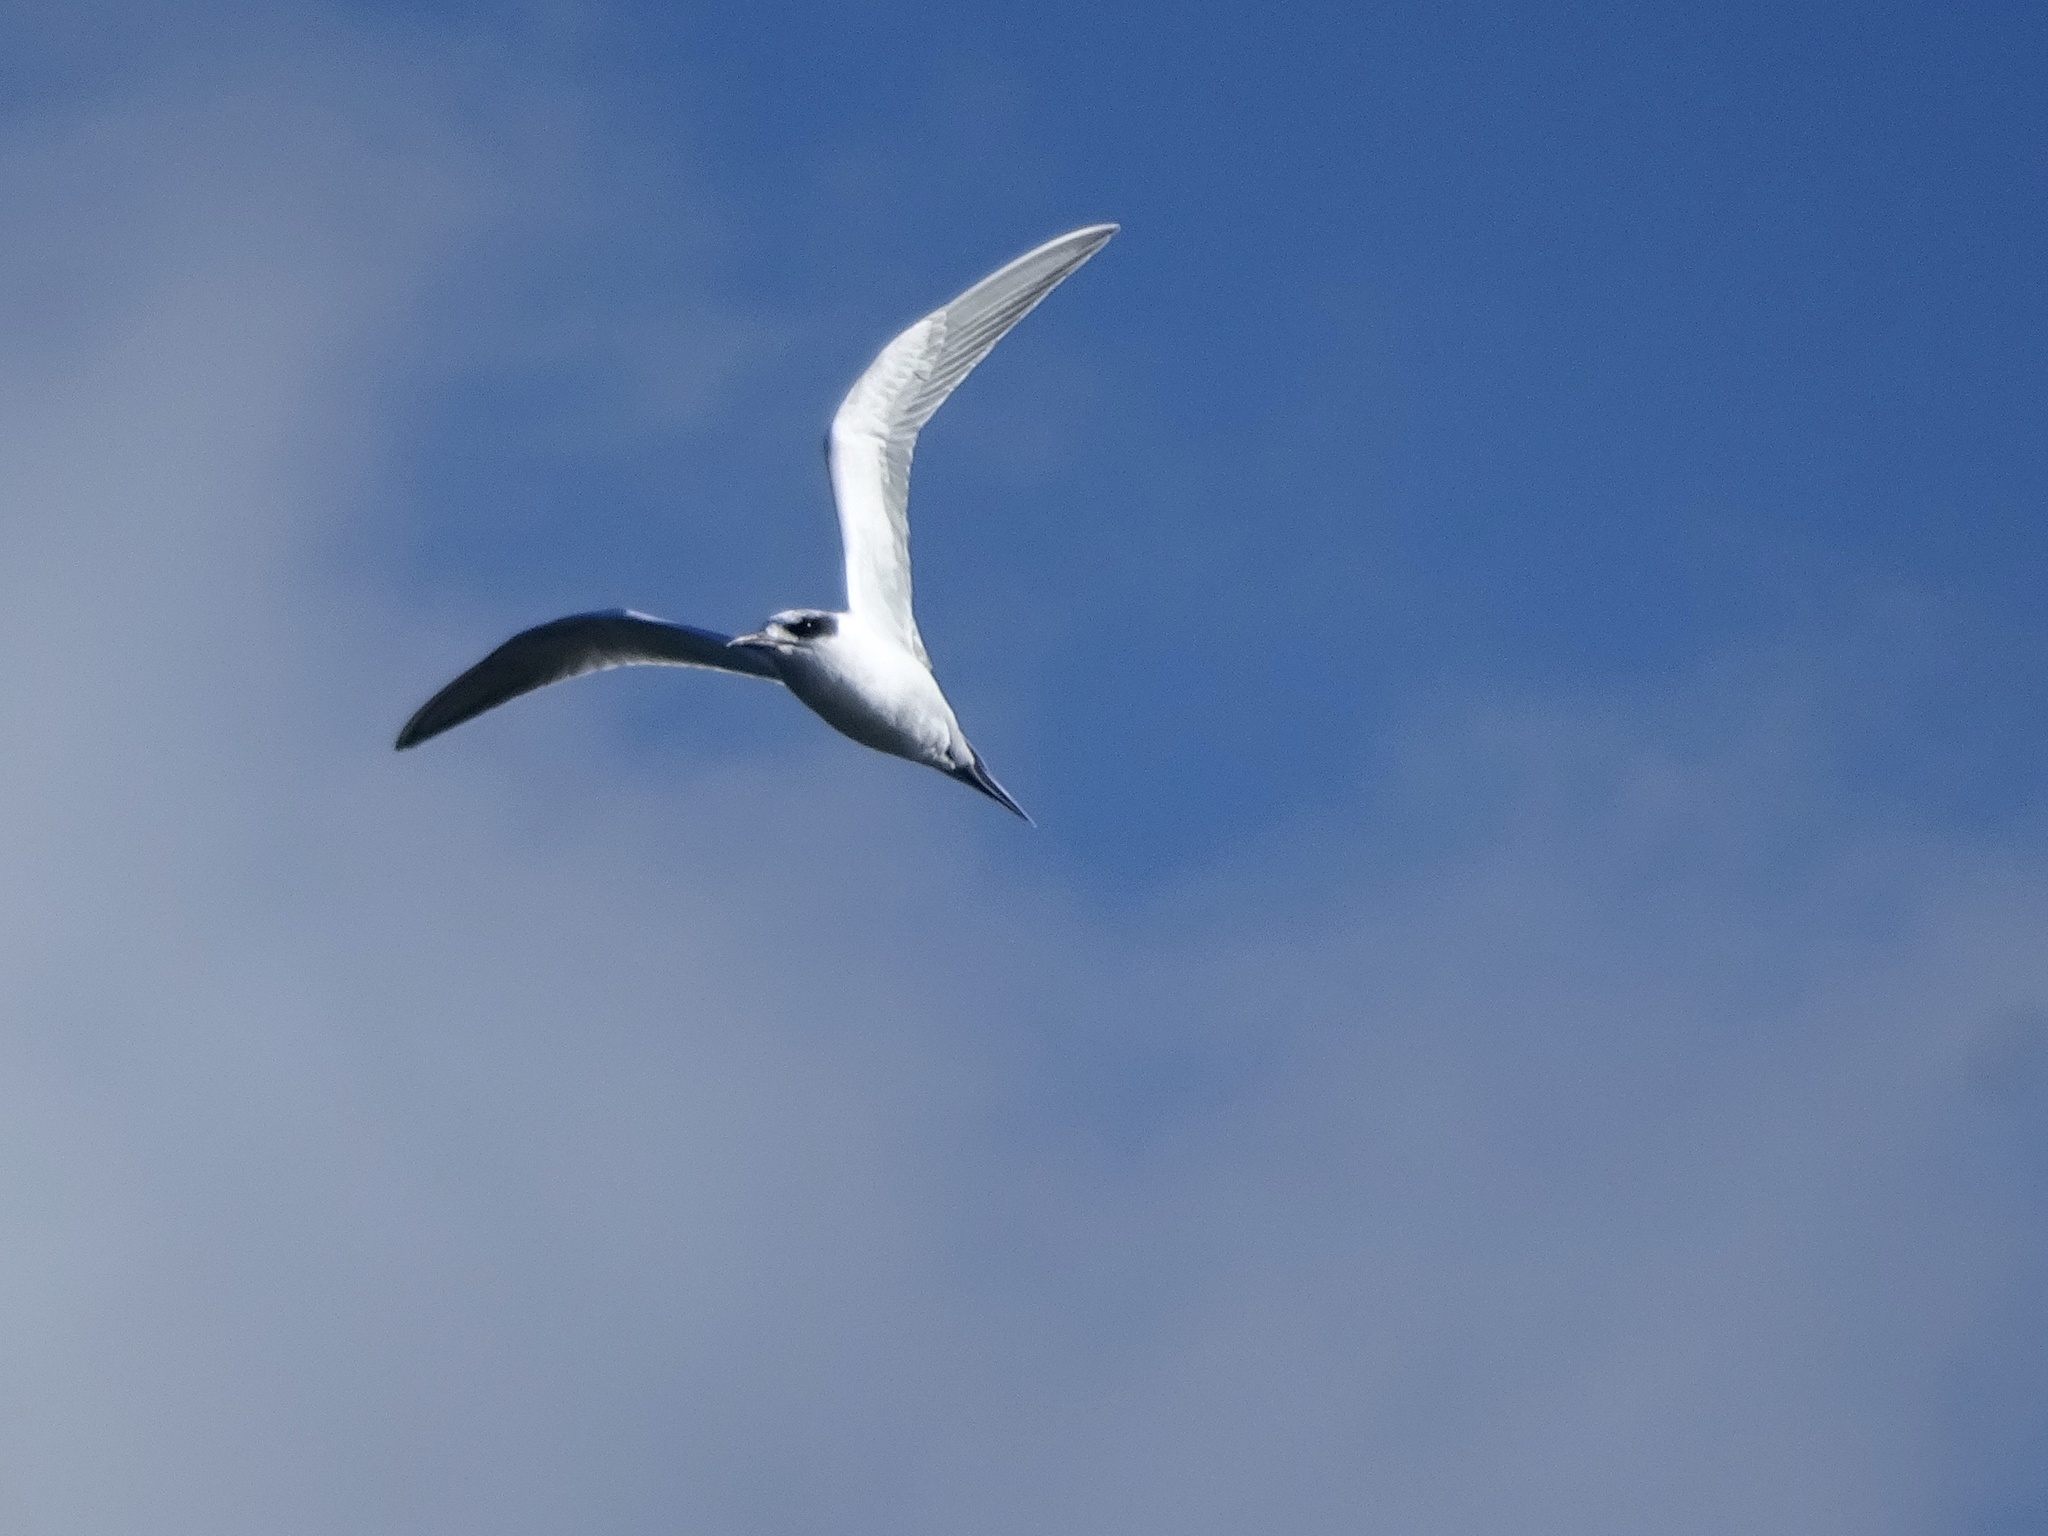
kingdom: Animalia
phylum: Chordata
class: Aves
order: Charadriiformes
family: Laridae
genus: Sterna
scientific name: Sterna forsteri
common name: Forster's tern
